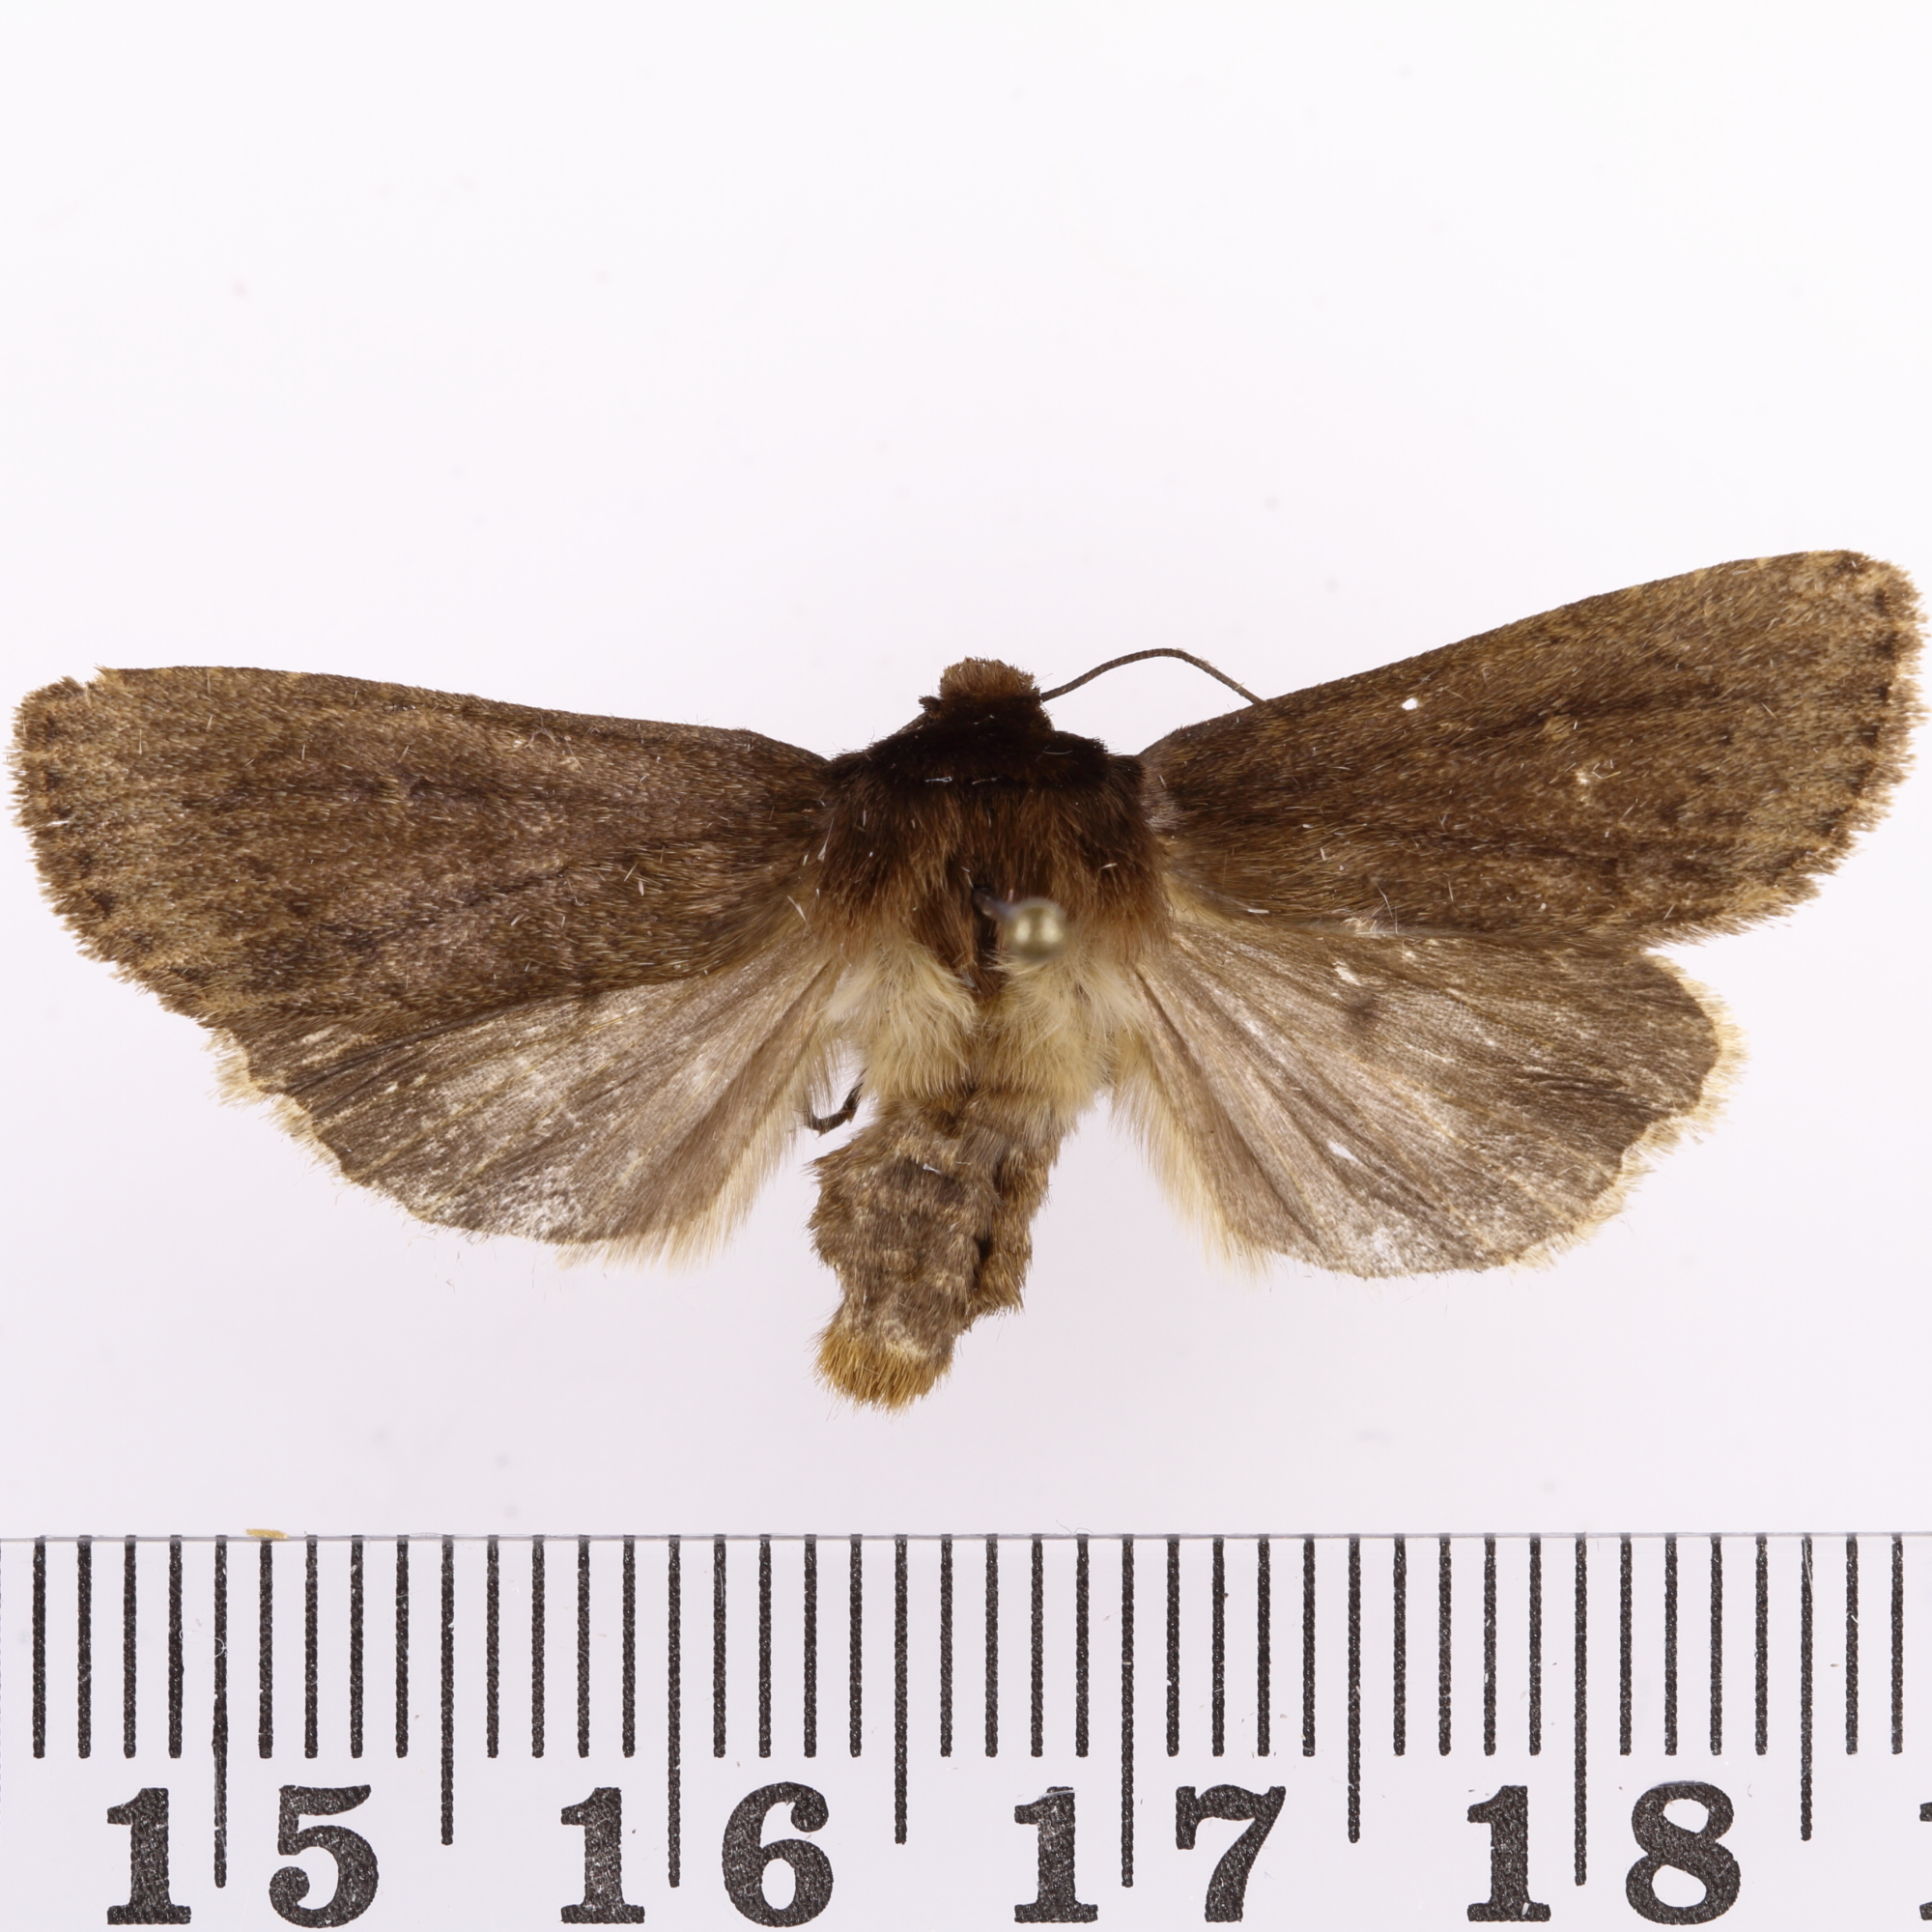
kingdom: Animalia
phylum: Arthropoda
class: Insecta
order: Lepidoptera
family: Noctuidae
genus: Bityla
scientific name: Bityla defigurata
